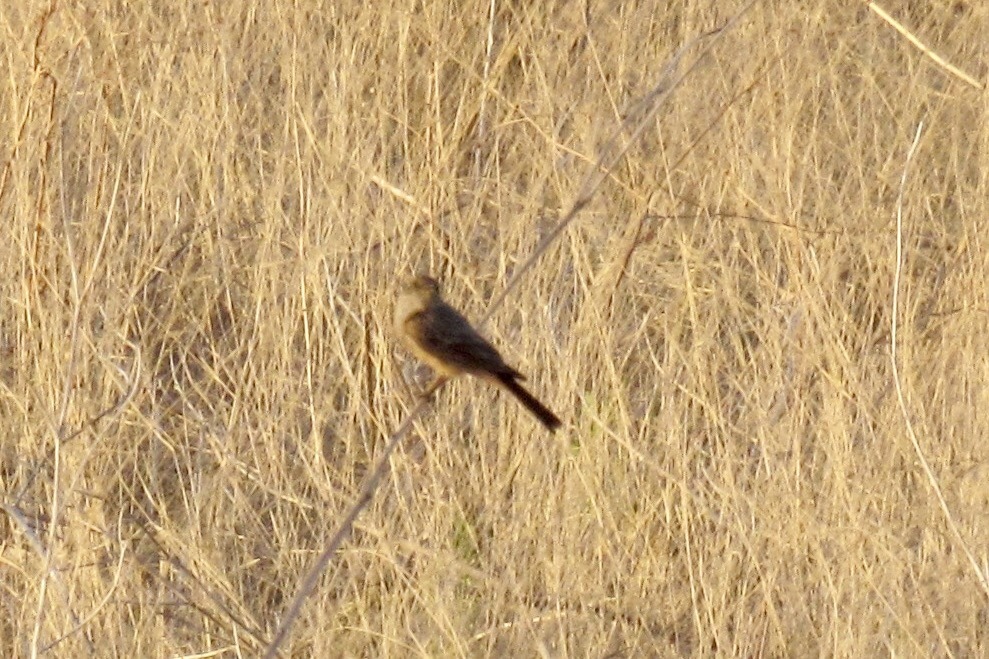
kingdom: Animalia
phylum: Chordata
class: Aves
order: Passeriformes
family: Tyrannidae
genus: Sayornis
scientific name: Sayornis saya
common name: Say's phoebe
